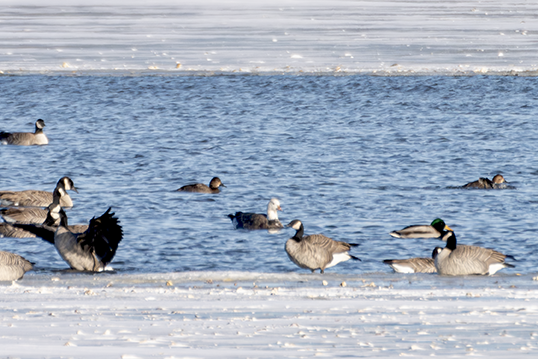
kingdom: Animalia
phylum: Chordata
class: Aves
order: Anseriformes
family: Anatidae
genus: Anser
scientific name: Anser rossii
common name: Ross's goose
